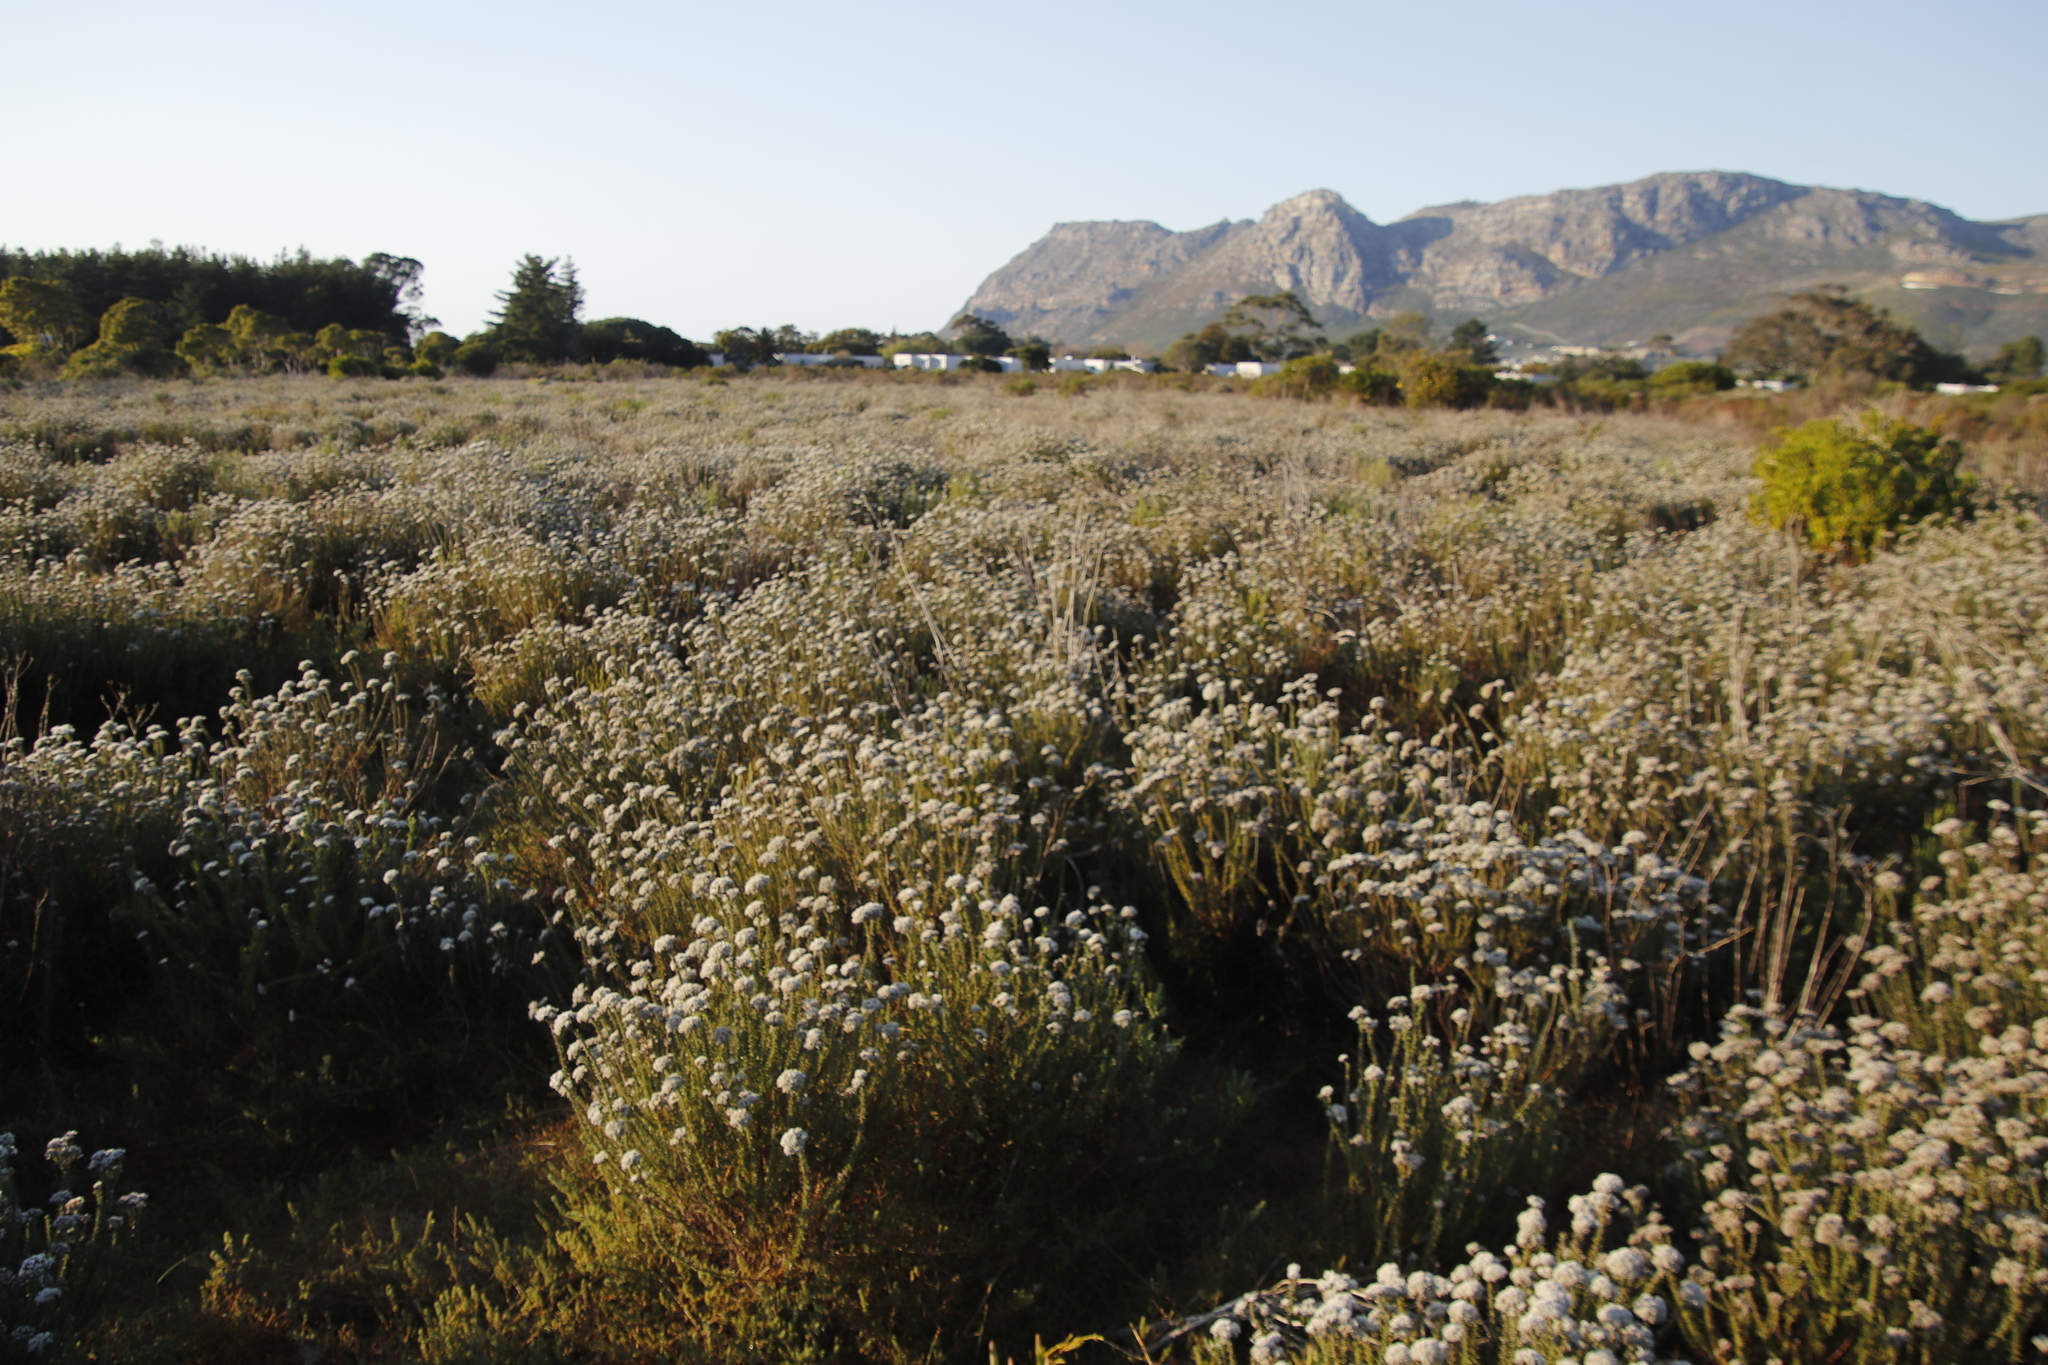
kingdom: Plantae
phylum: Tracheophyta
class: Magnoliopsida
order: Asterales
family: Asteraceae
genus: Metalasia
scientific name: Metalasia densa
